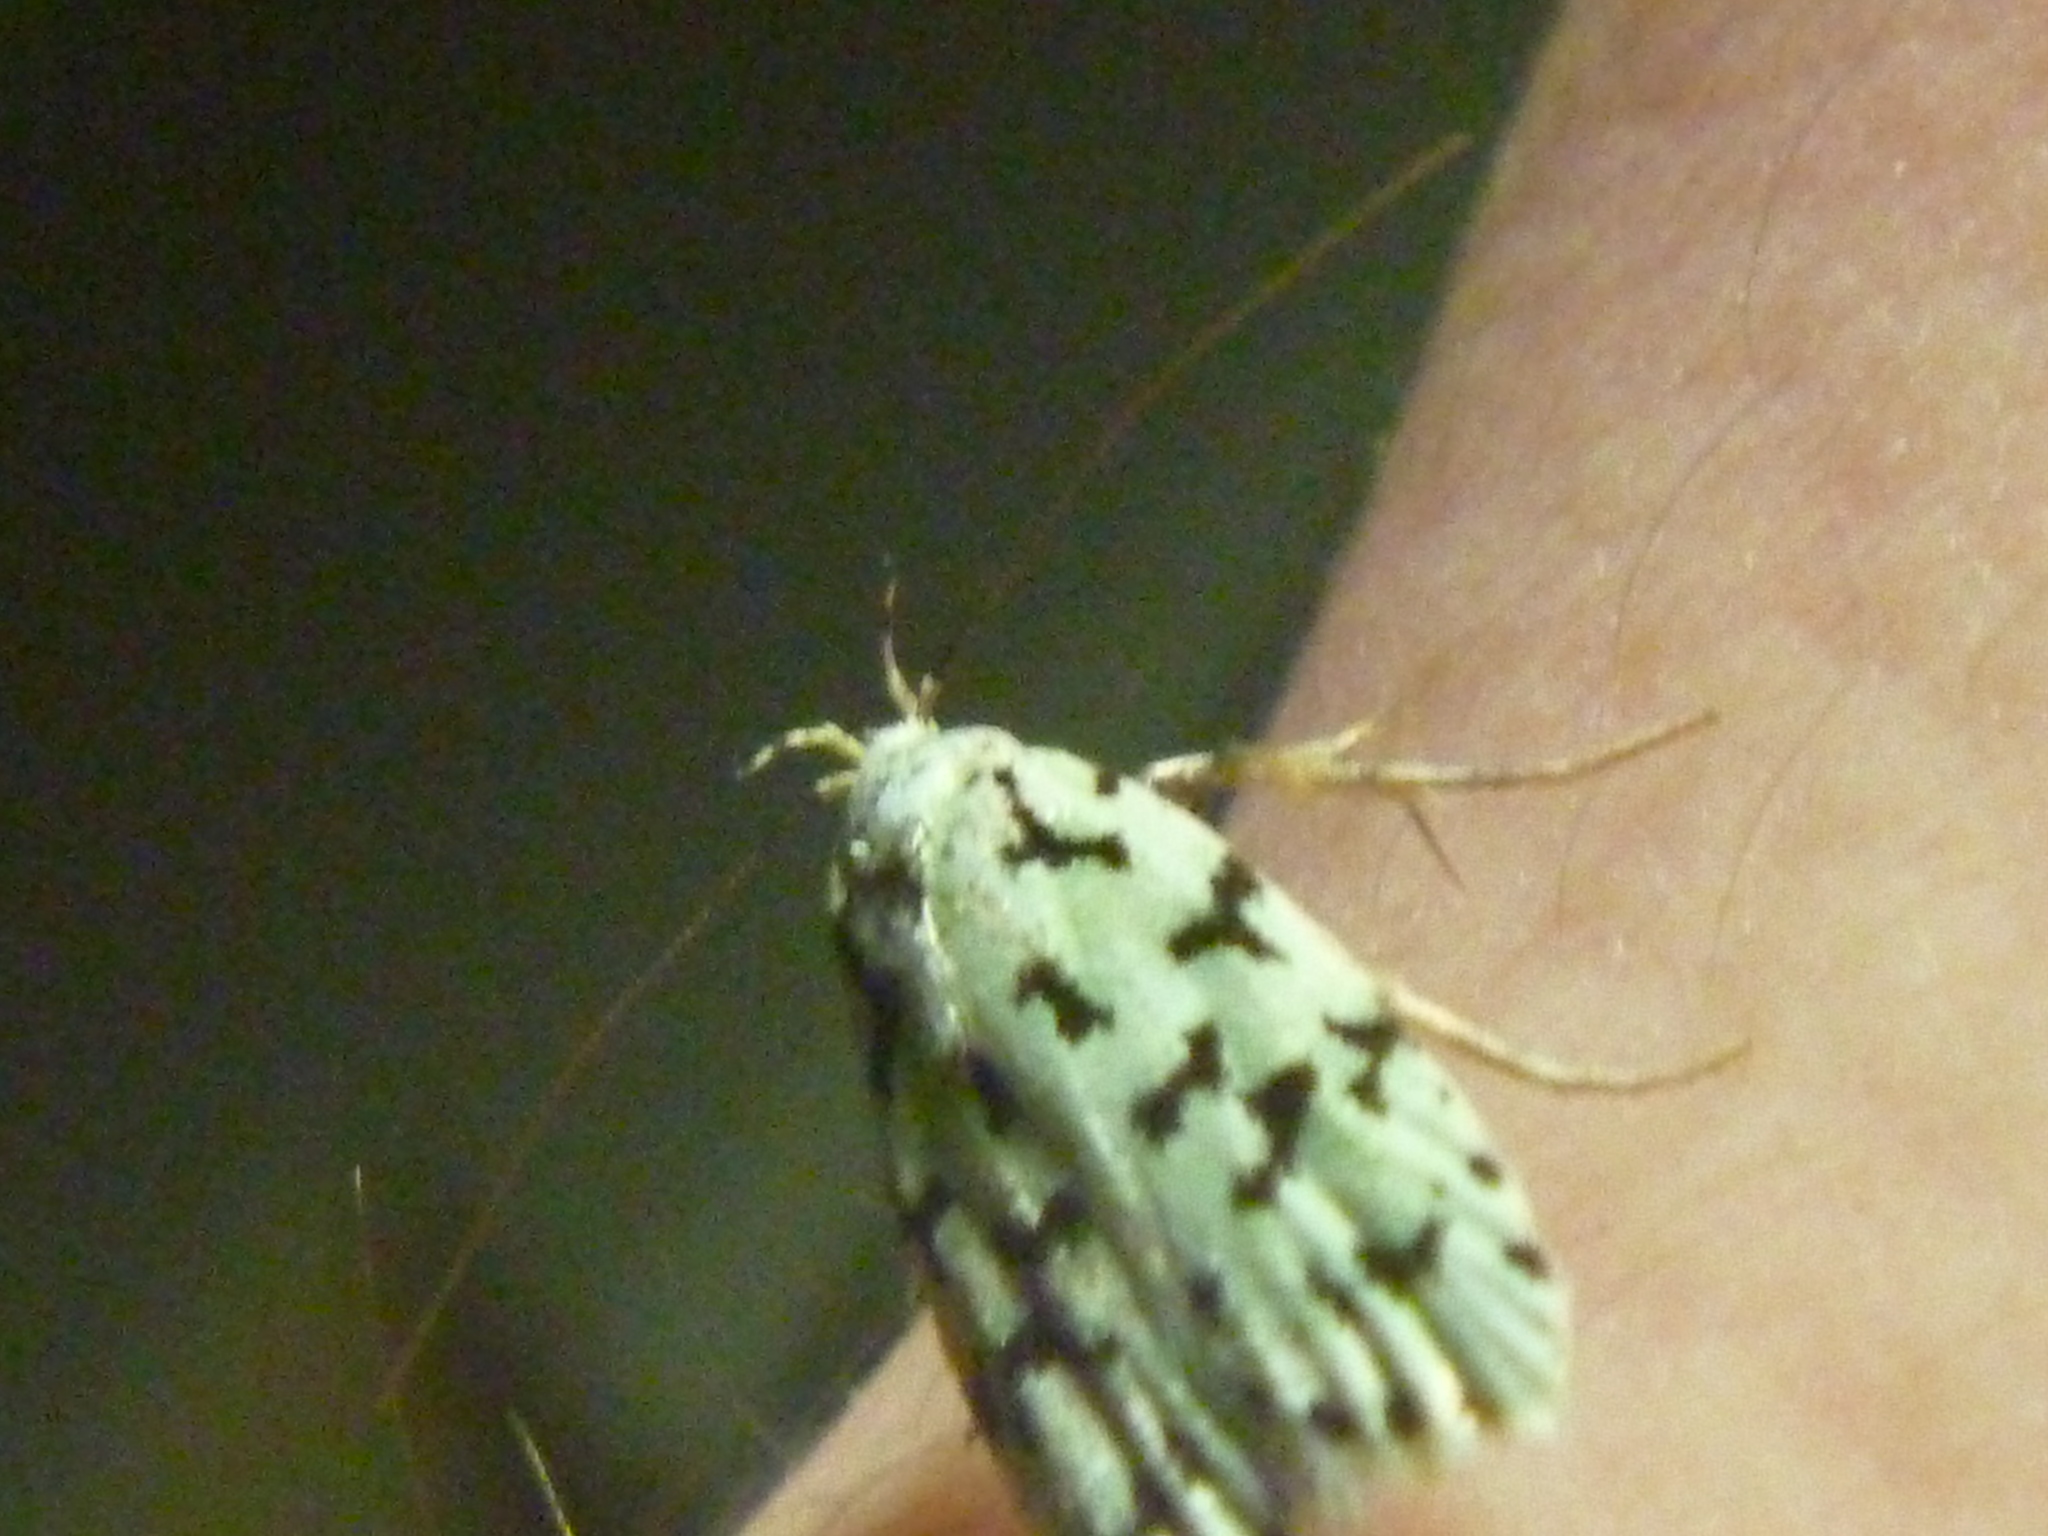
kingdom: Animalia
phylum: Arthropoda
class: Insecta
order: Lepidoptera
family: Oecophoridae
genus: Izatha
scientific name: Izatha huttoni
